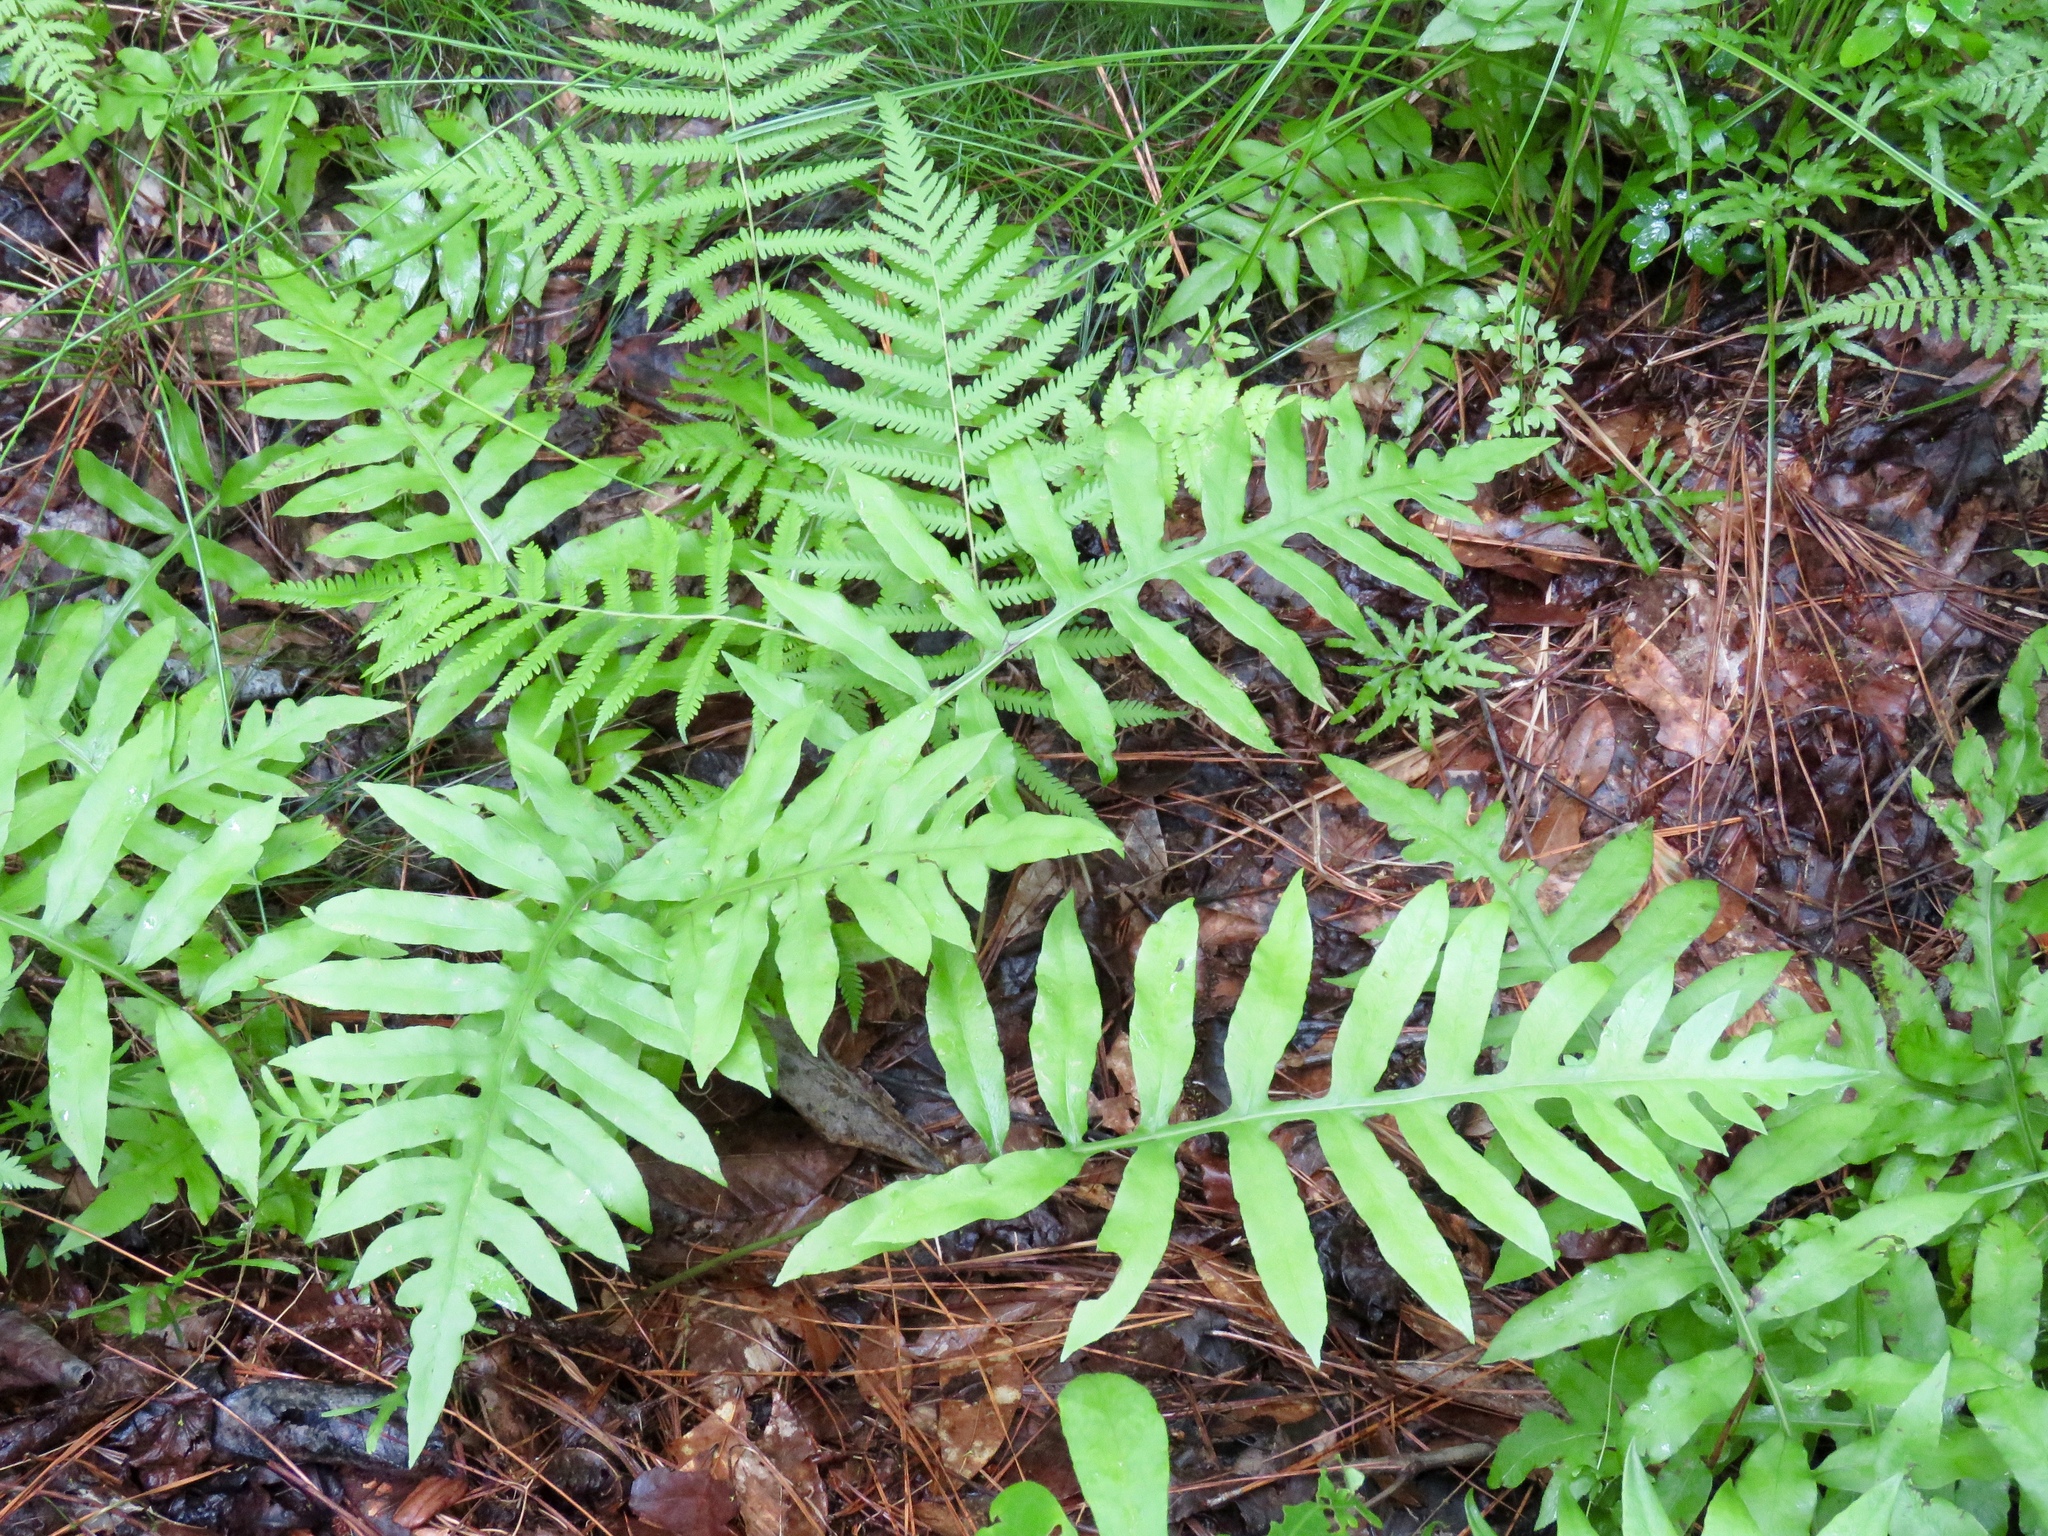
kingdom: Plantae
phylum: Tracheophyta
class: Polypodiopsida
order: Polypodiales
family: Blechnaceae
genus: Lorinseria
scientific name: Lorinseria areolata
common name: Dwarf chain fern
